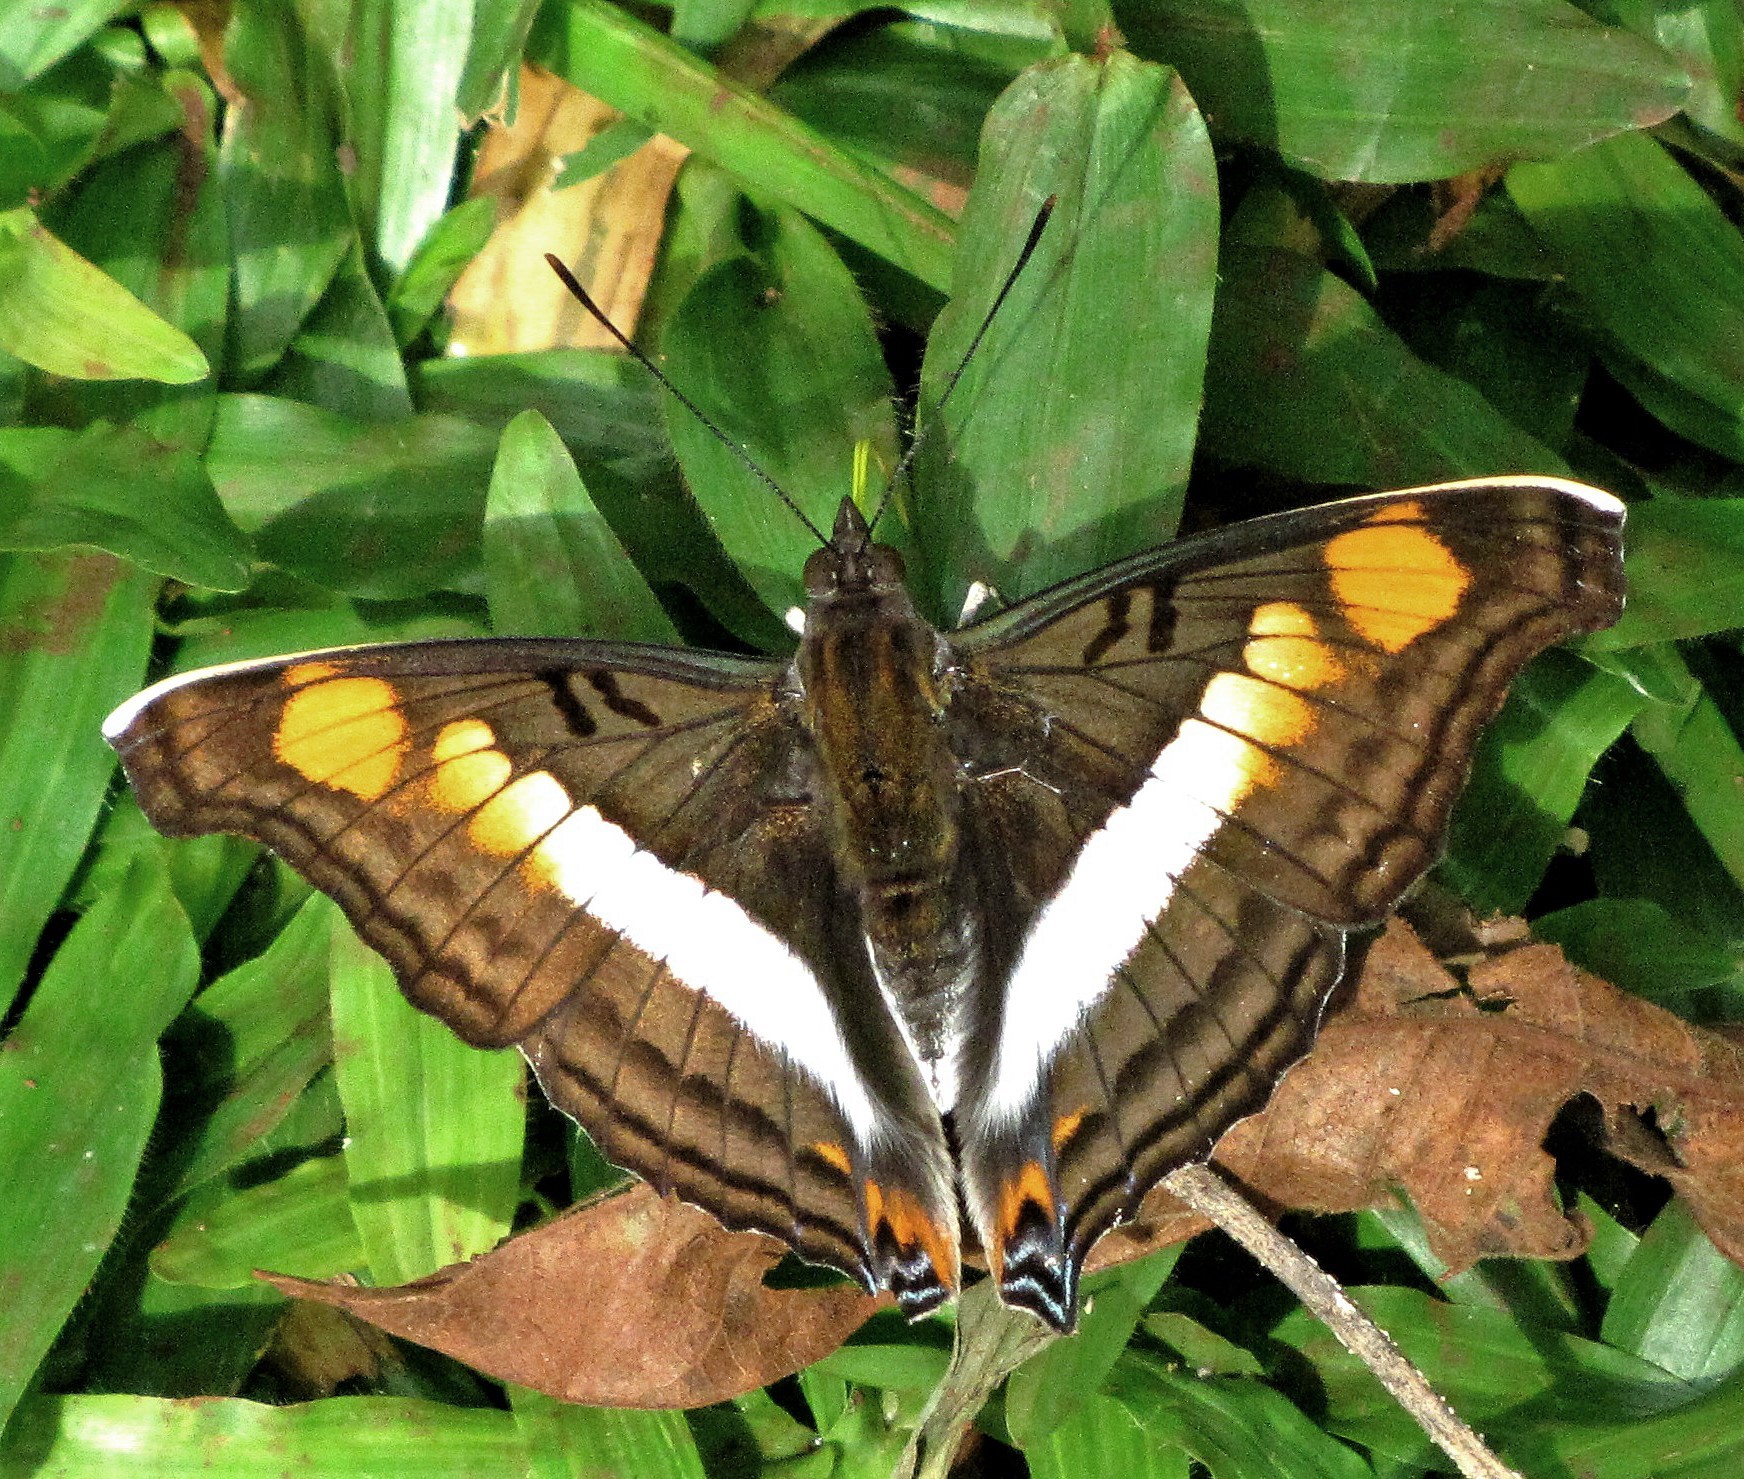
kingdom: Animalia
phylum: Arthropoda
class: Insecta
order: Lepidoptera
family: Nymphalidae
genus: Doxocopa
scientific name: Doxocopa linda
